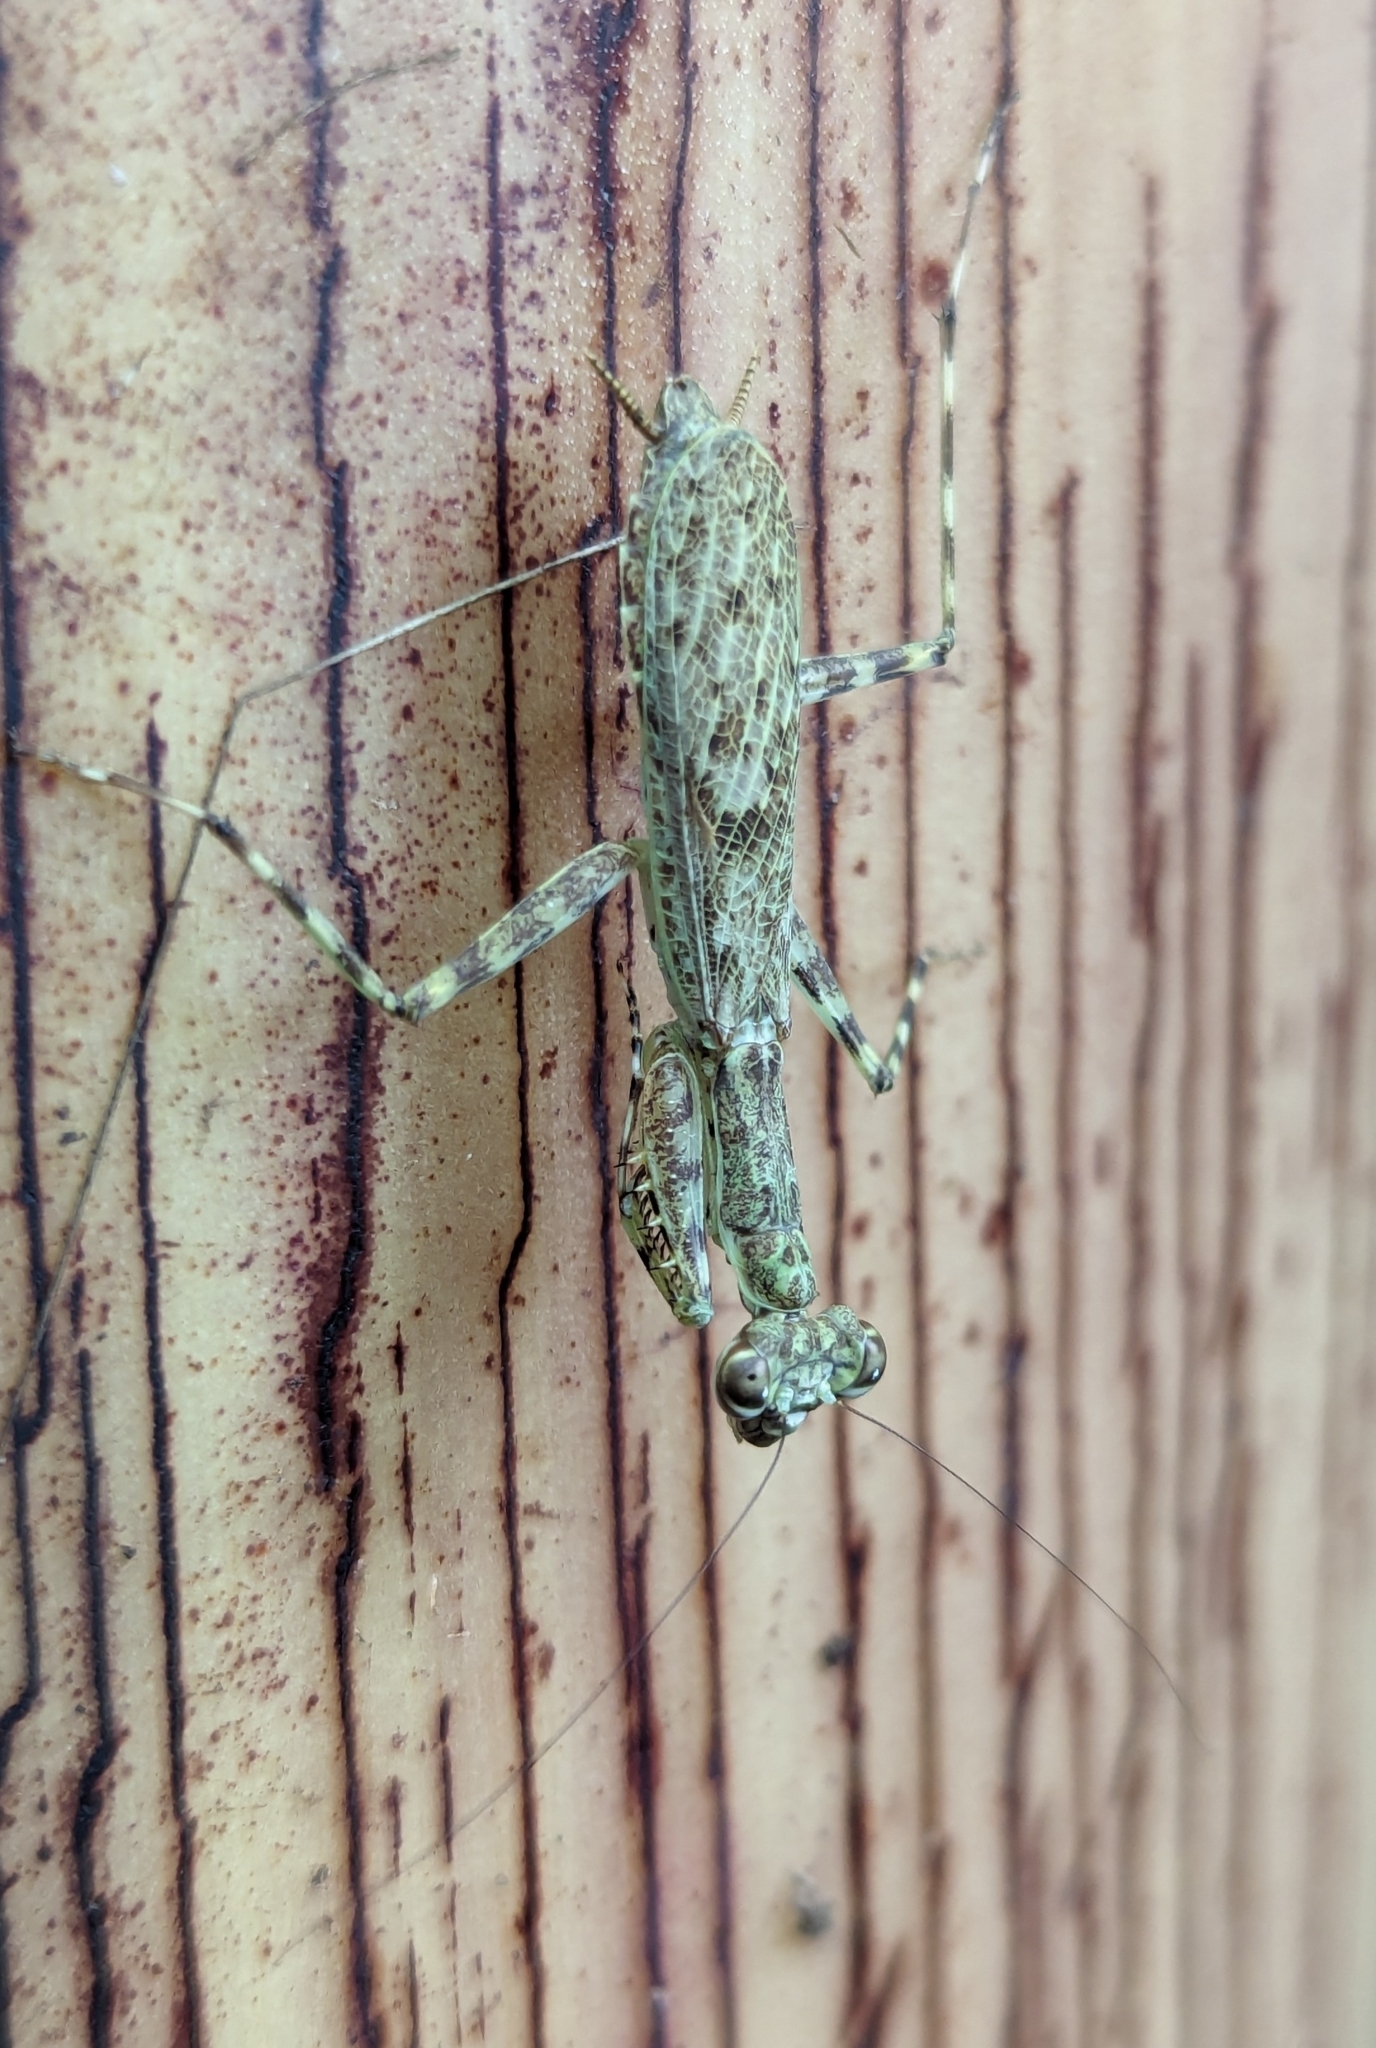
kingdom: Animalia
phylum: Arthropoda
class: Insecta
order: Mantodea
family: Liturgusidae
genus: Liturgusa
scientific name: Liturgusa maya
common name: Mantis
